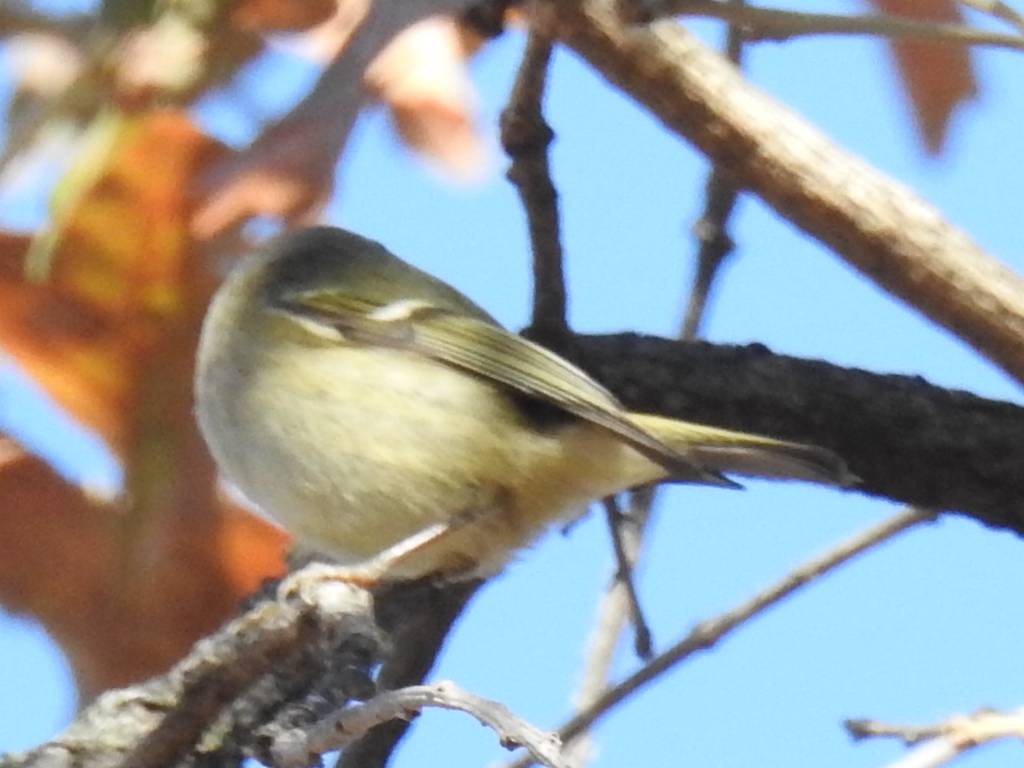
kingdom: Animalia
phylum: Chordata
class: Aves
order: Passeriformes
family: Regulidae
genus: Regulus
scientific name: Regulus calendula
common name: Ruby-crowned kinglet
